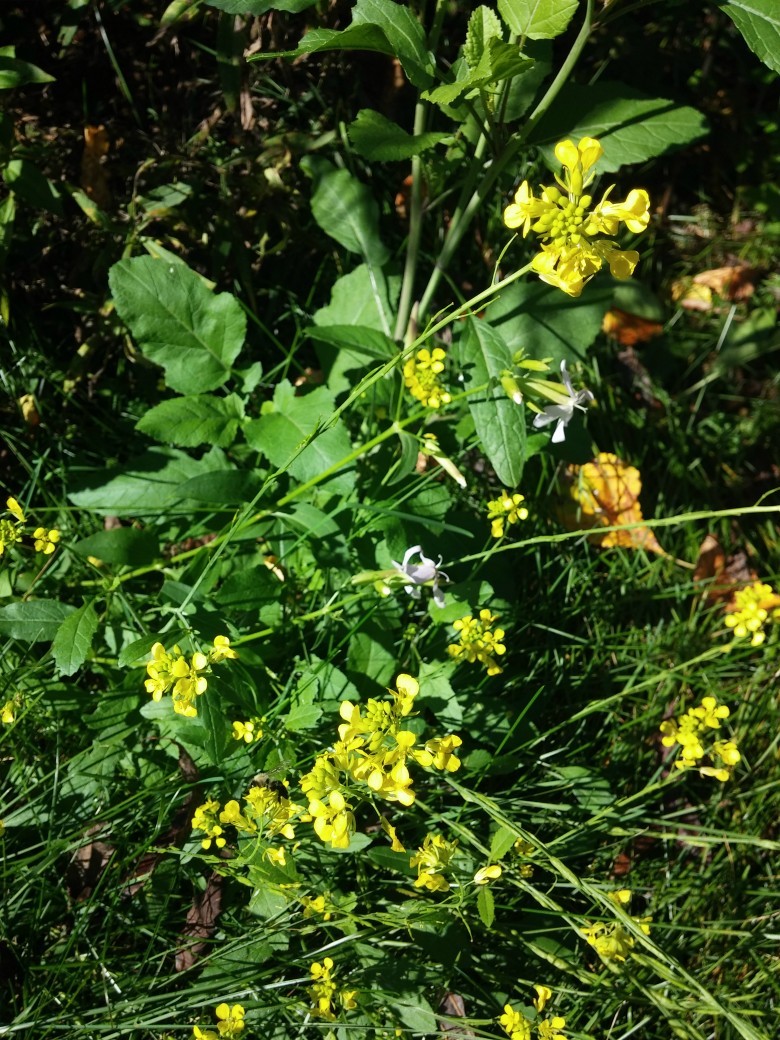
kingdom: Plantae
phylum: Tracheophyta
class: Magnoliopsida
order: Brassicales
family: Brassicaceae
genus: Brassica
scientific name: Brassica juncea
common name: Brown mustard
